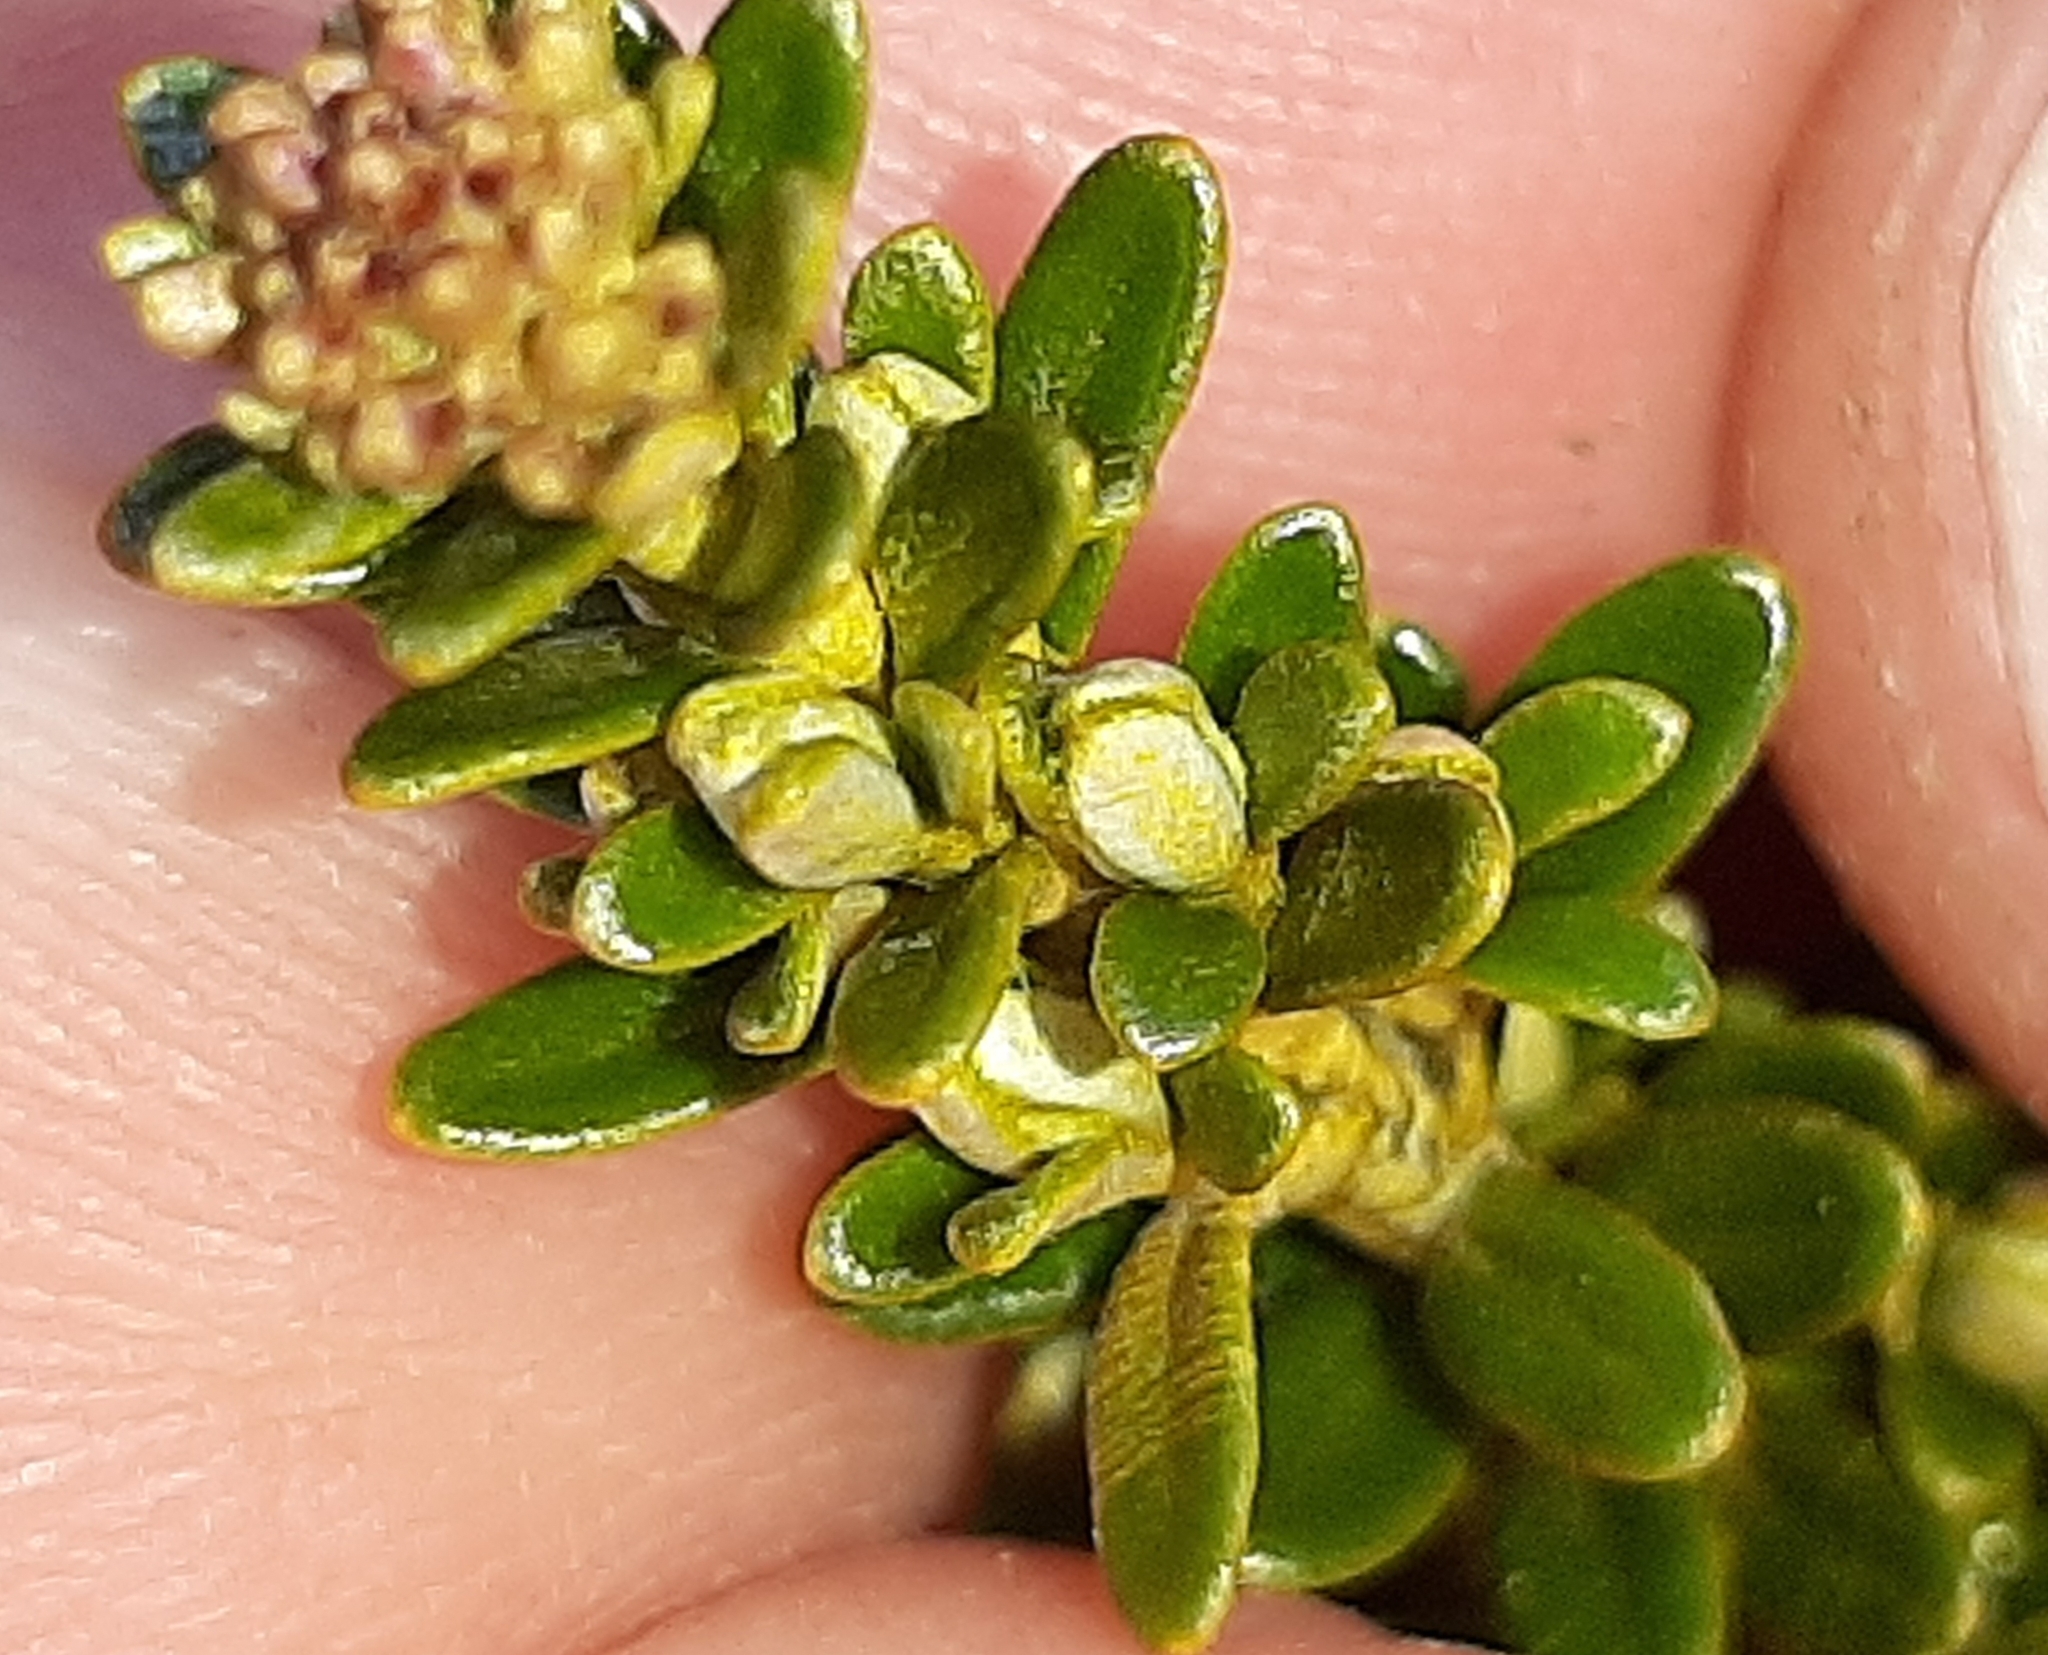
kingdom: Plantae
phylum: Tracheophyta
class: Magnoliopsida
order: Asterales
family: Asteraceae
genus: Ozothamnus
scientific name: Ozothamnus leptophyllus
